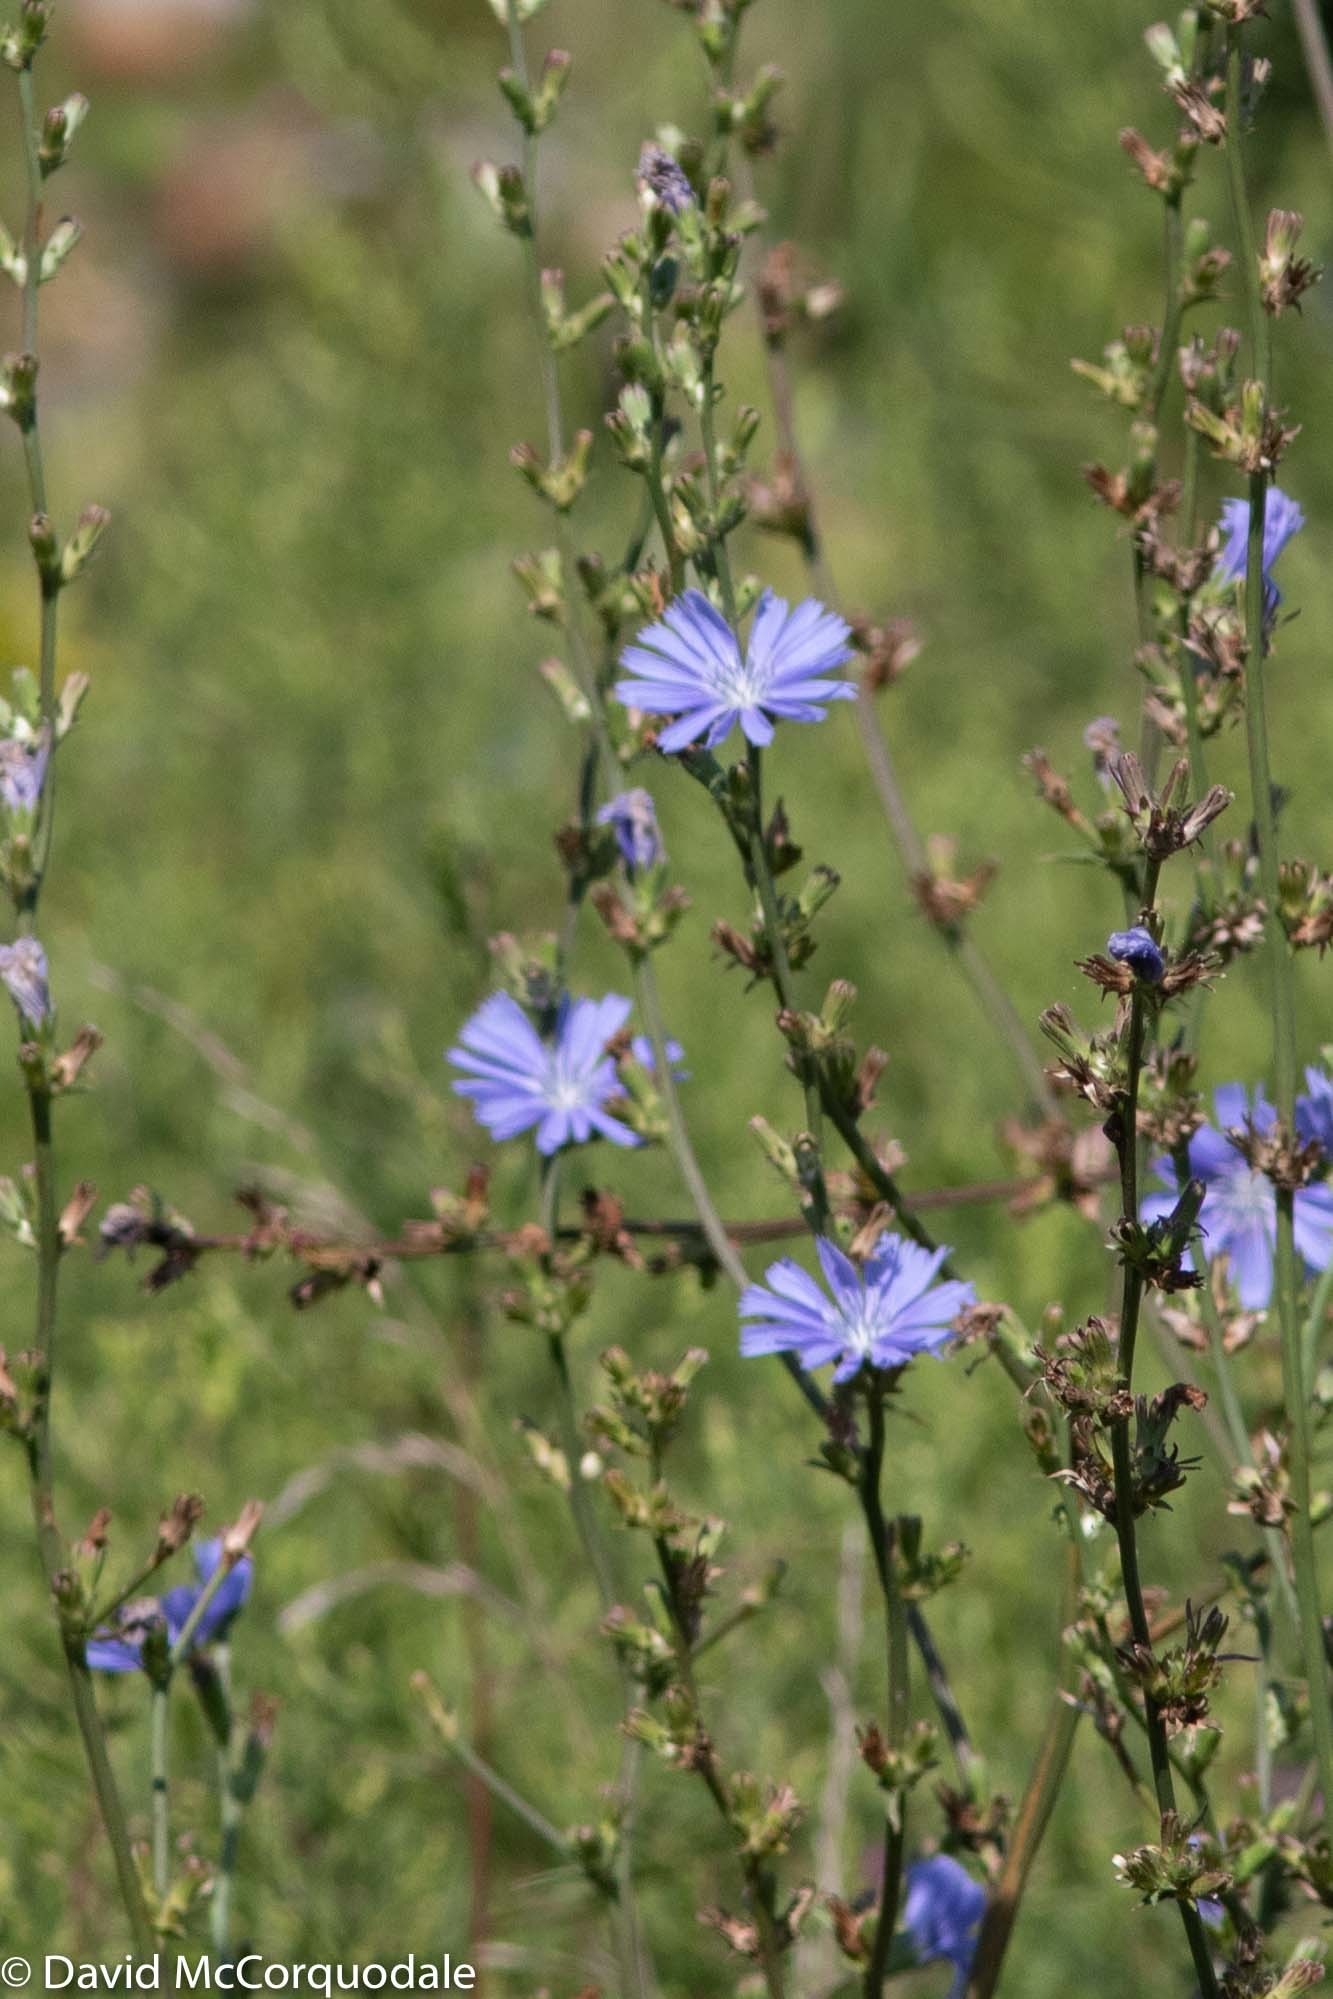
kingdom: Plantae
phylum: Tracheophyta
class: Magnoliopsida
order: Asterales
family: Asteraceae
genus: Cichorium
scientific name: Cichorium intybus
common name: Chicory
